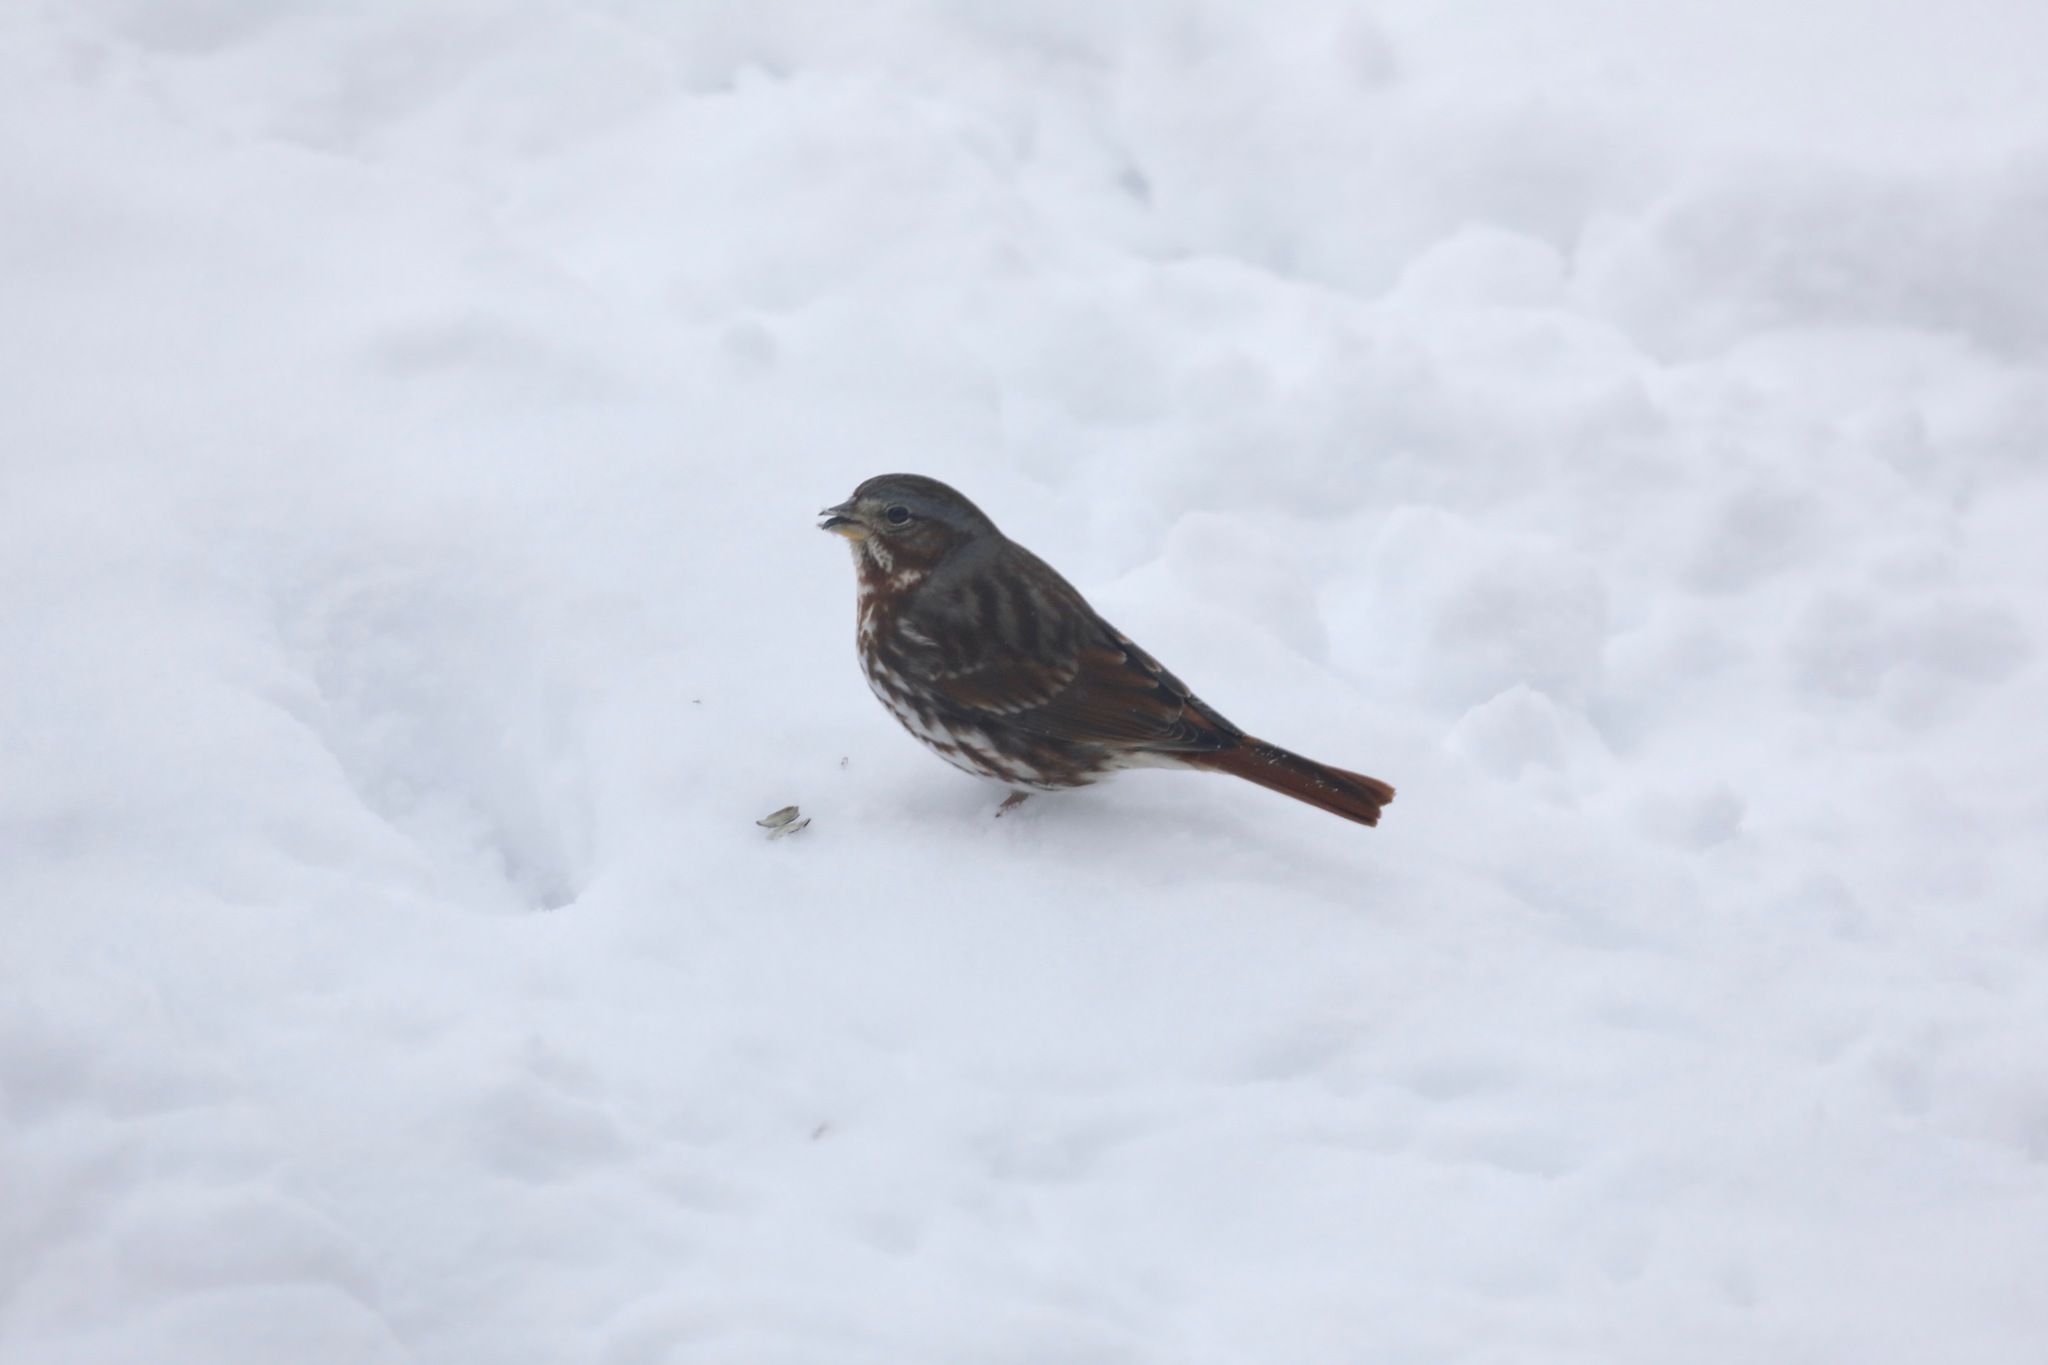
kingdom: Animalia
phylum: Chordata
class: Aves
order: Passeriformes
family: Passerellidae
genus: Passerella
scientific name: Passerella iliaca
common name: Fox sparrow
